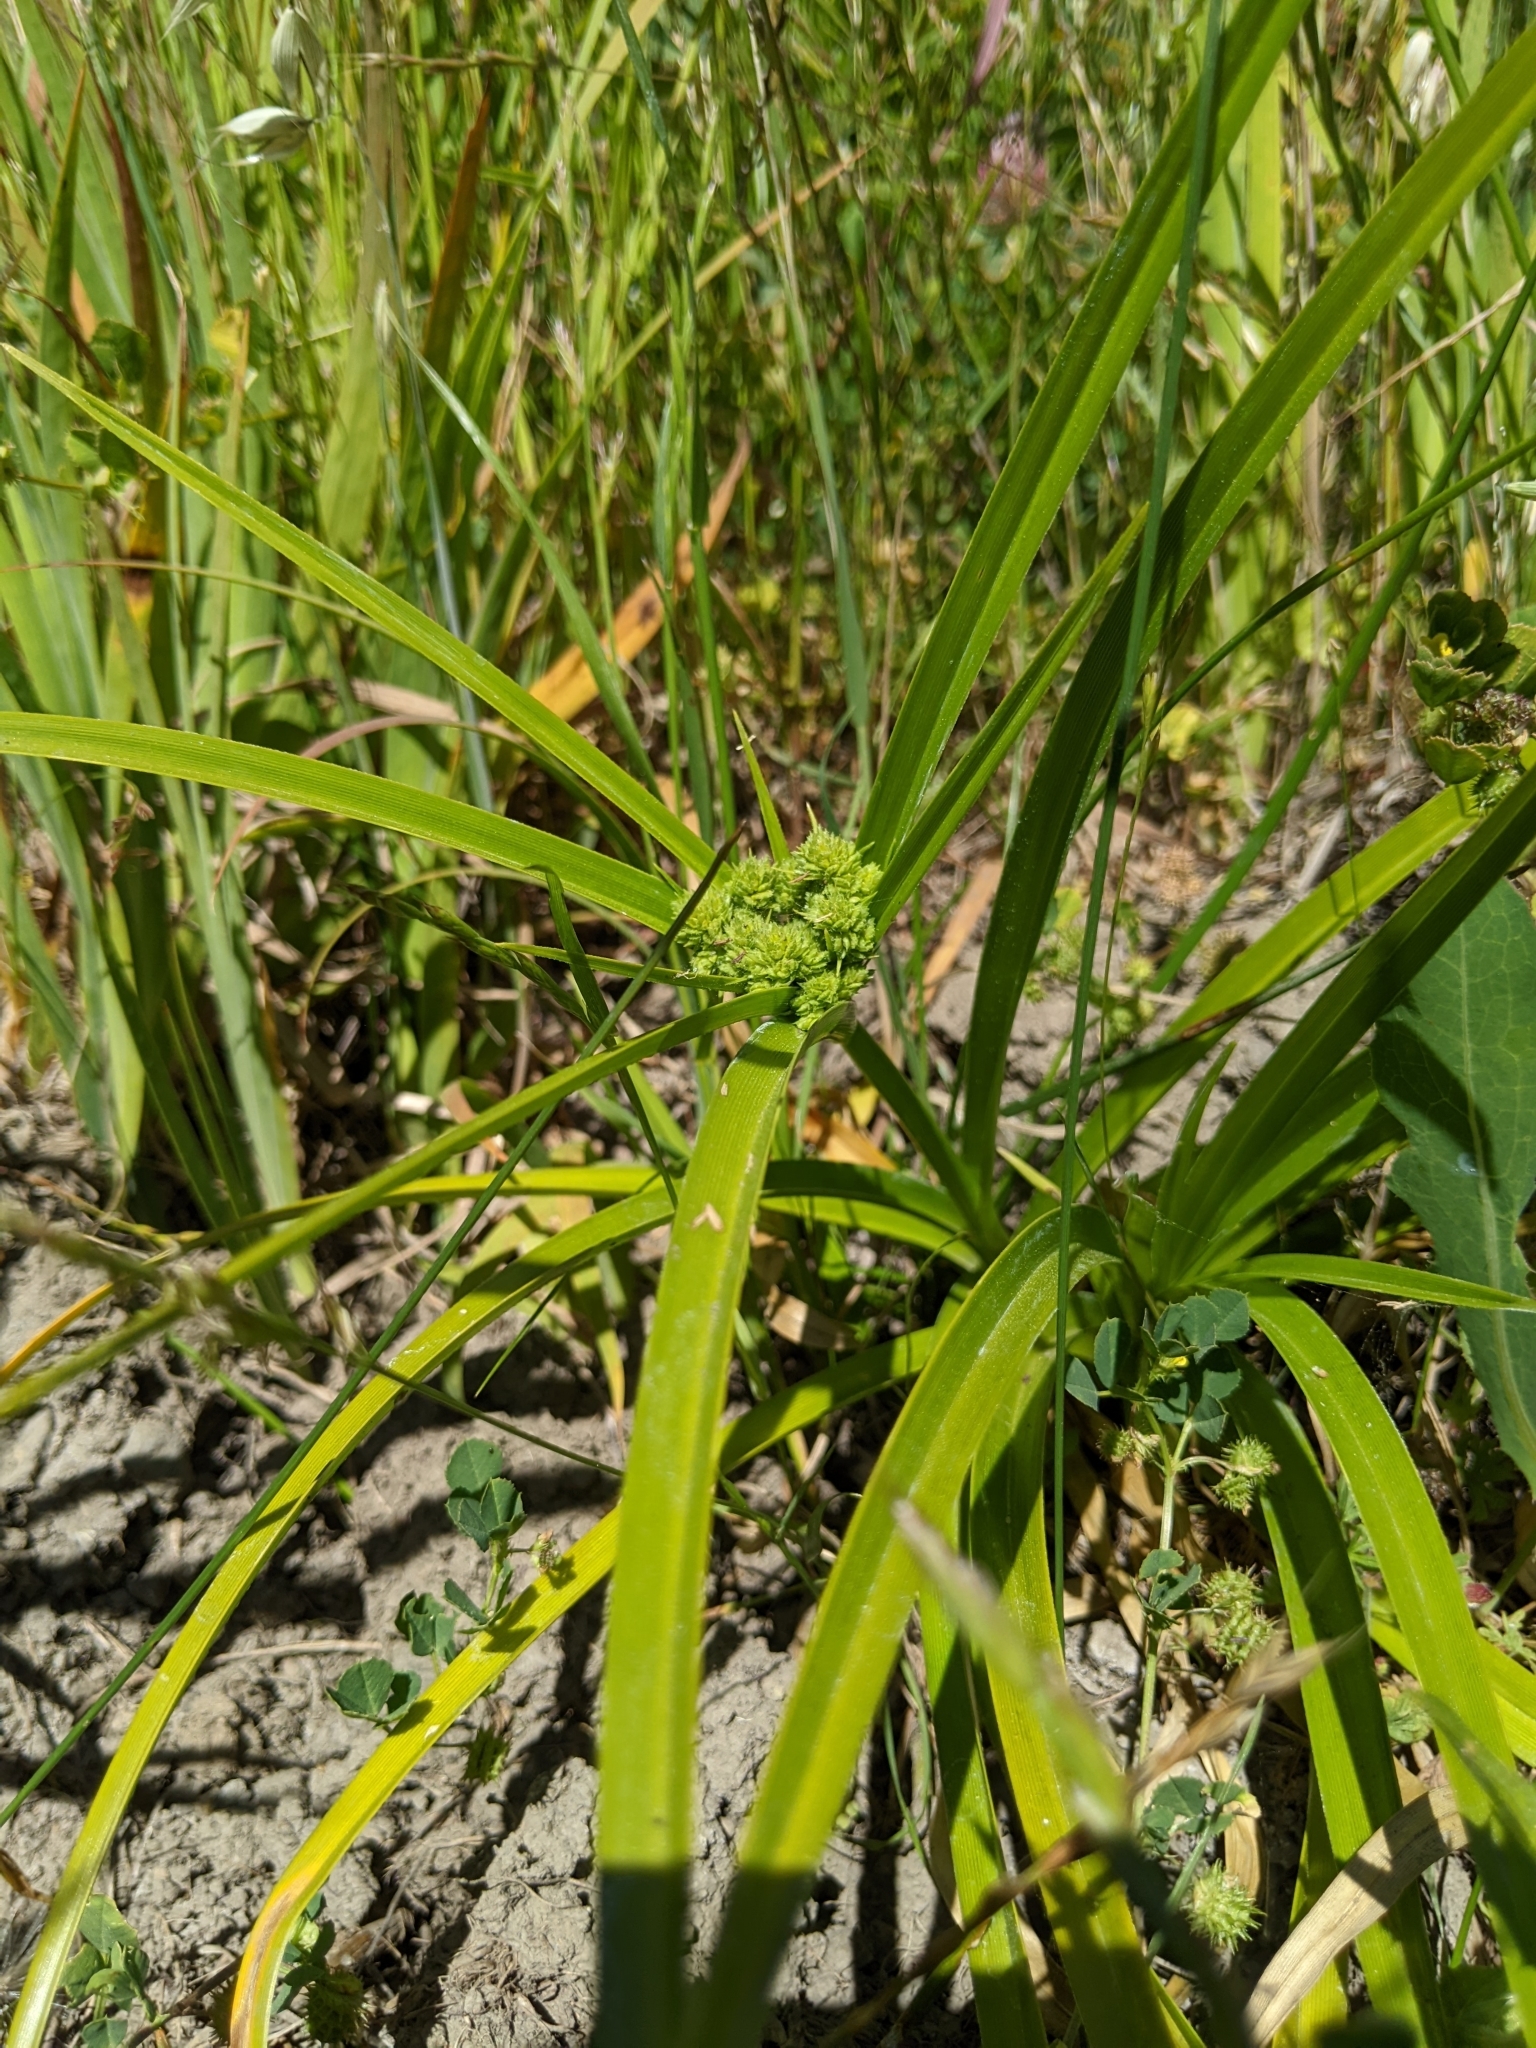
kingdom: Plantae
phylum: Tracheophyta
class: Liliopsida
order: Poales
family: Cyperaceae
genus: Cyperus
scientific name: Cyperus eragrostis
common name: Tall flatsedge
